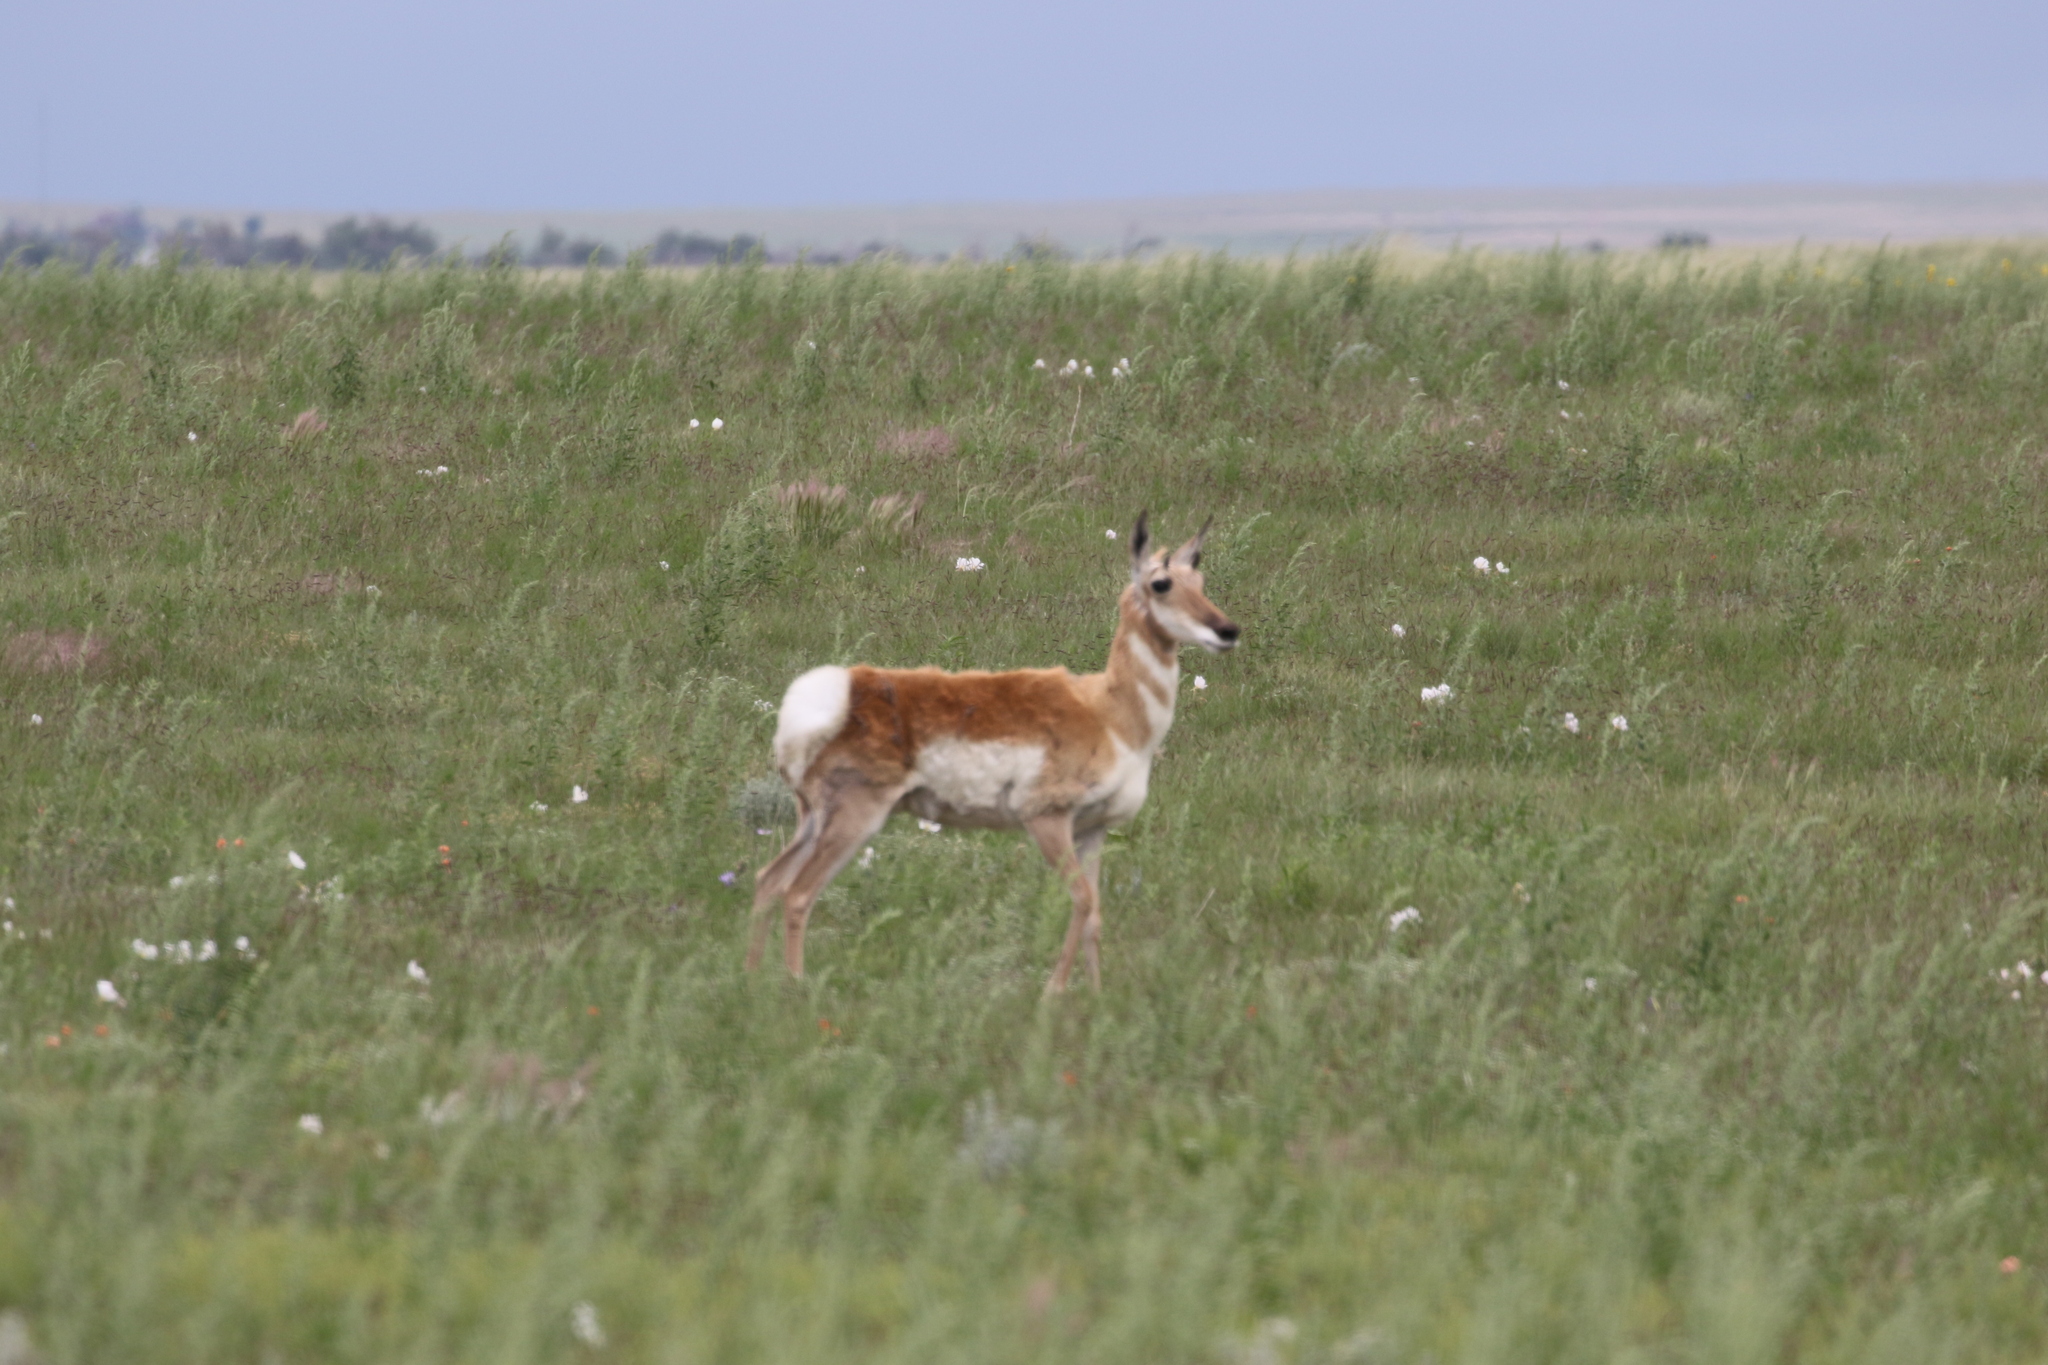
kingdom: Animalia
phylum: Chordata
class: Mammalia
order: Artiodactyla
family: Antilocapridae
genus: Antilocapra
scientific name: Antilocapra americana
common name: Pronghorn
